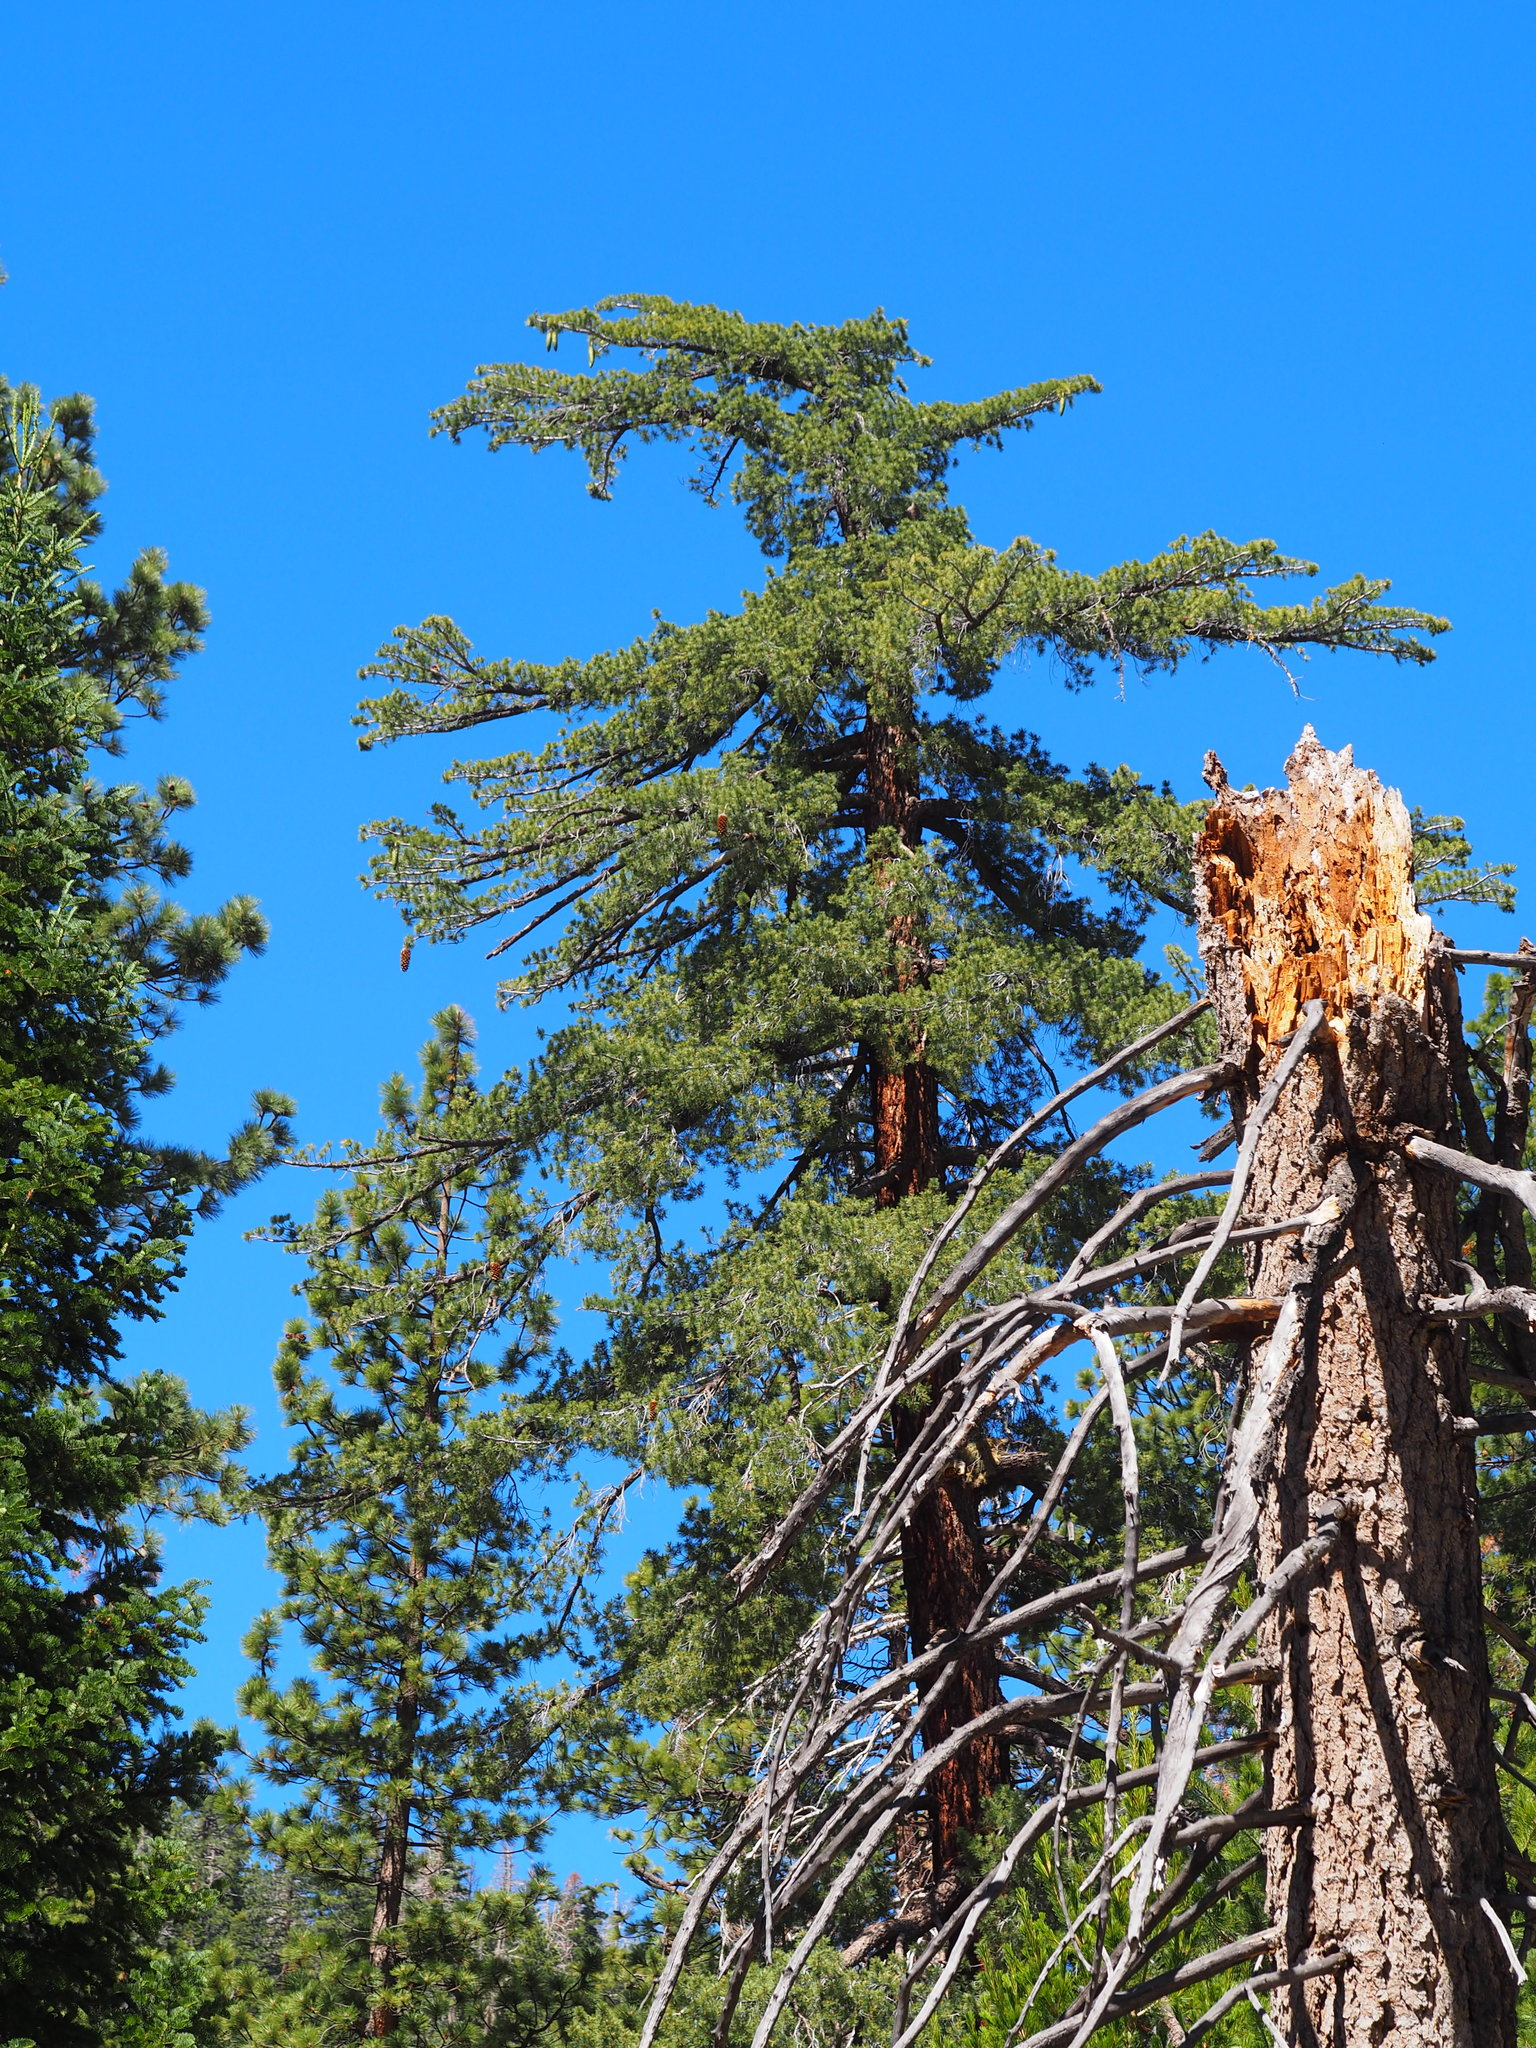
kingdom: Plantae
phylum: Tracheophyta
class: Pinopsida
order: Pinales
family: Pinaceae
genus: Pinus
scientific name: Pinus lambertiana
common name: Sugar pine
